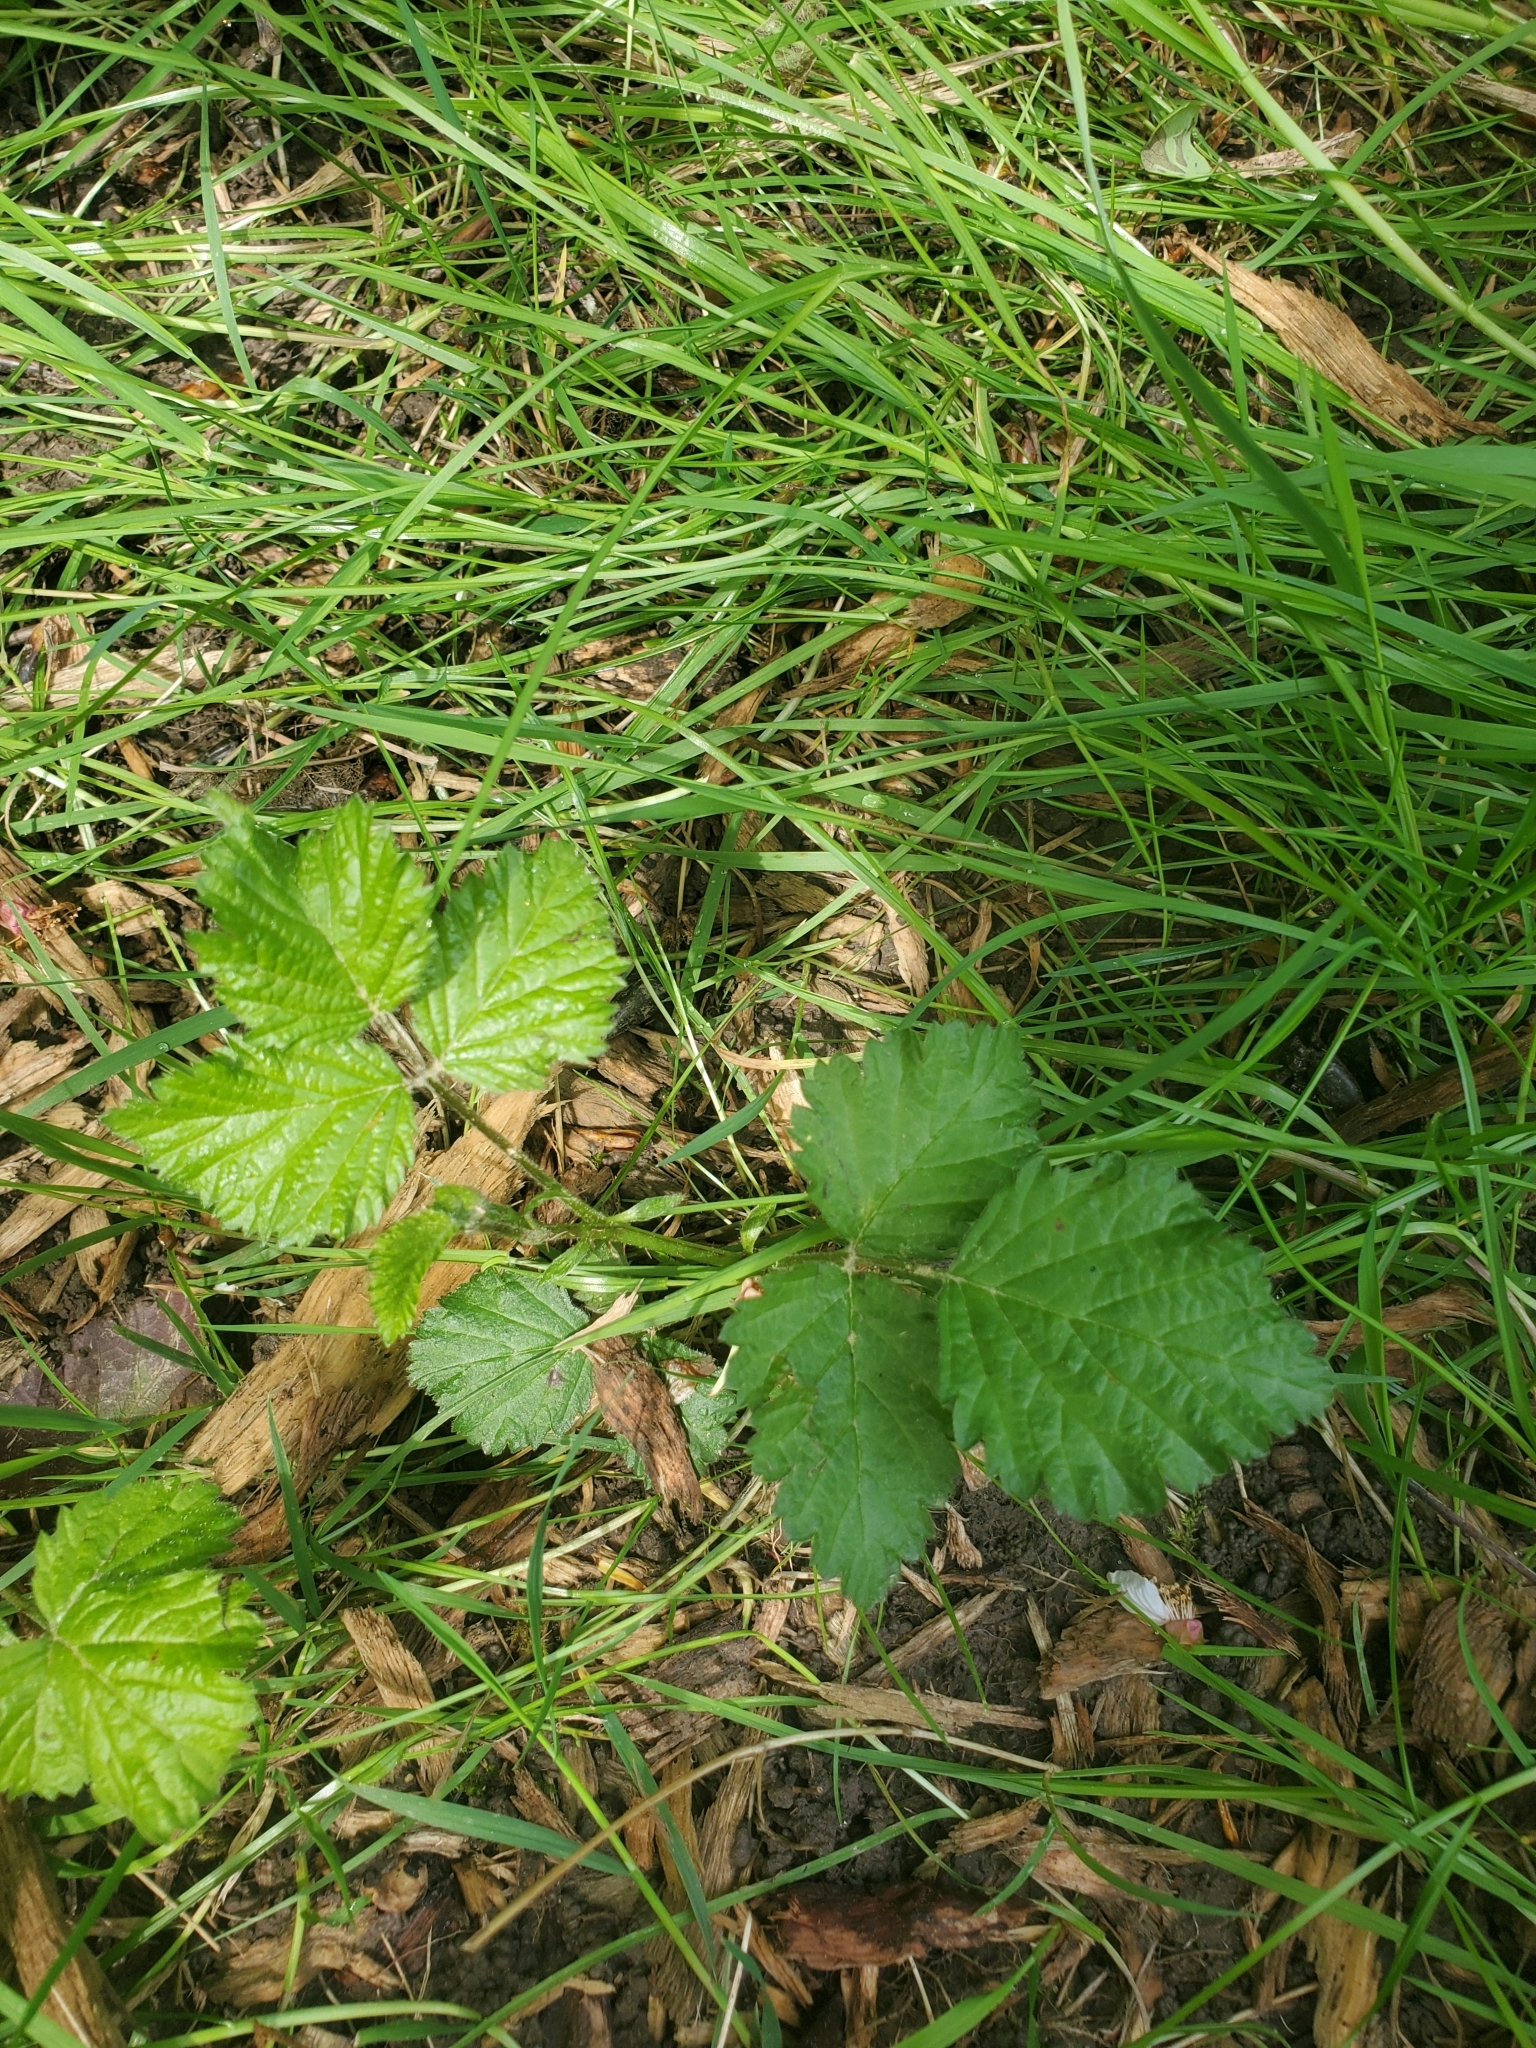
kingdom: Plantae
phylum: Tracheophyta
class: Magnoliopsida
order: Rosales
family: Rosaceae
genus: Rubus
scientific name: Rubus armeniacus
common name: Himalayan blackberry
